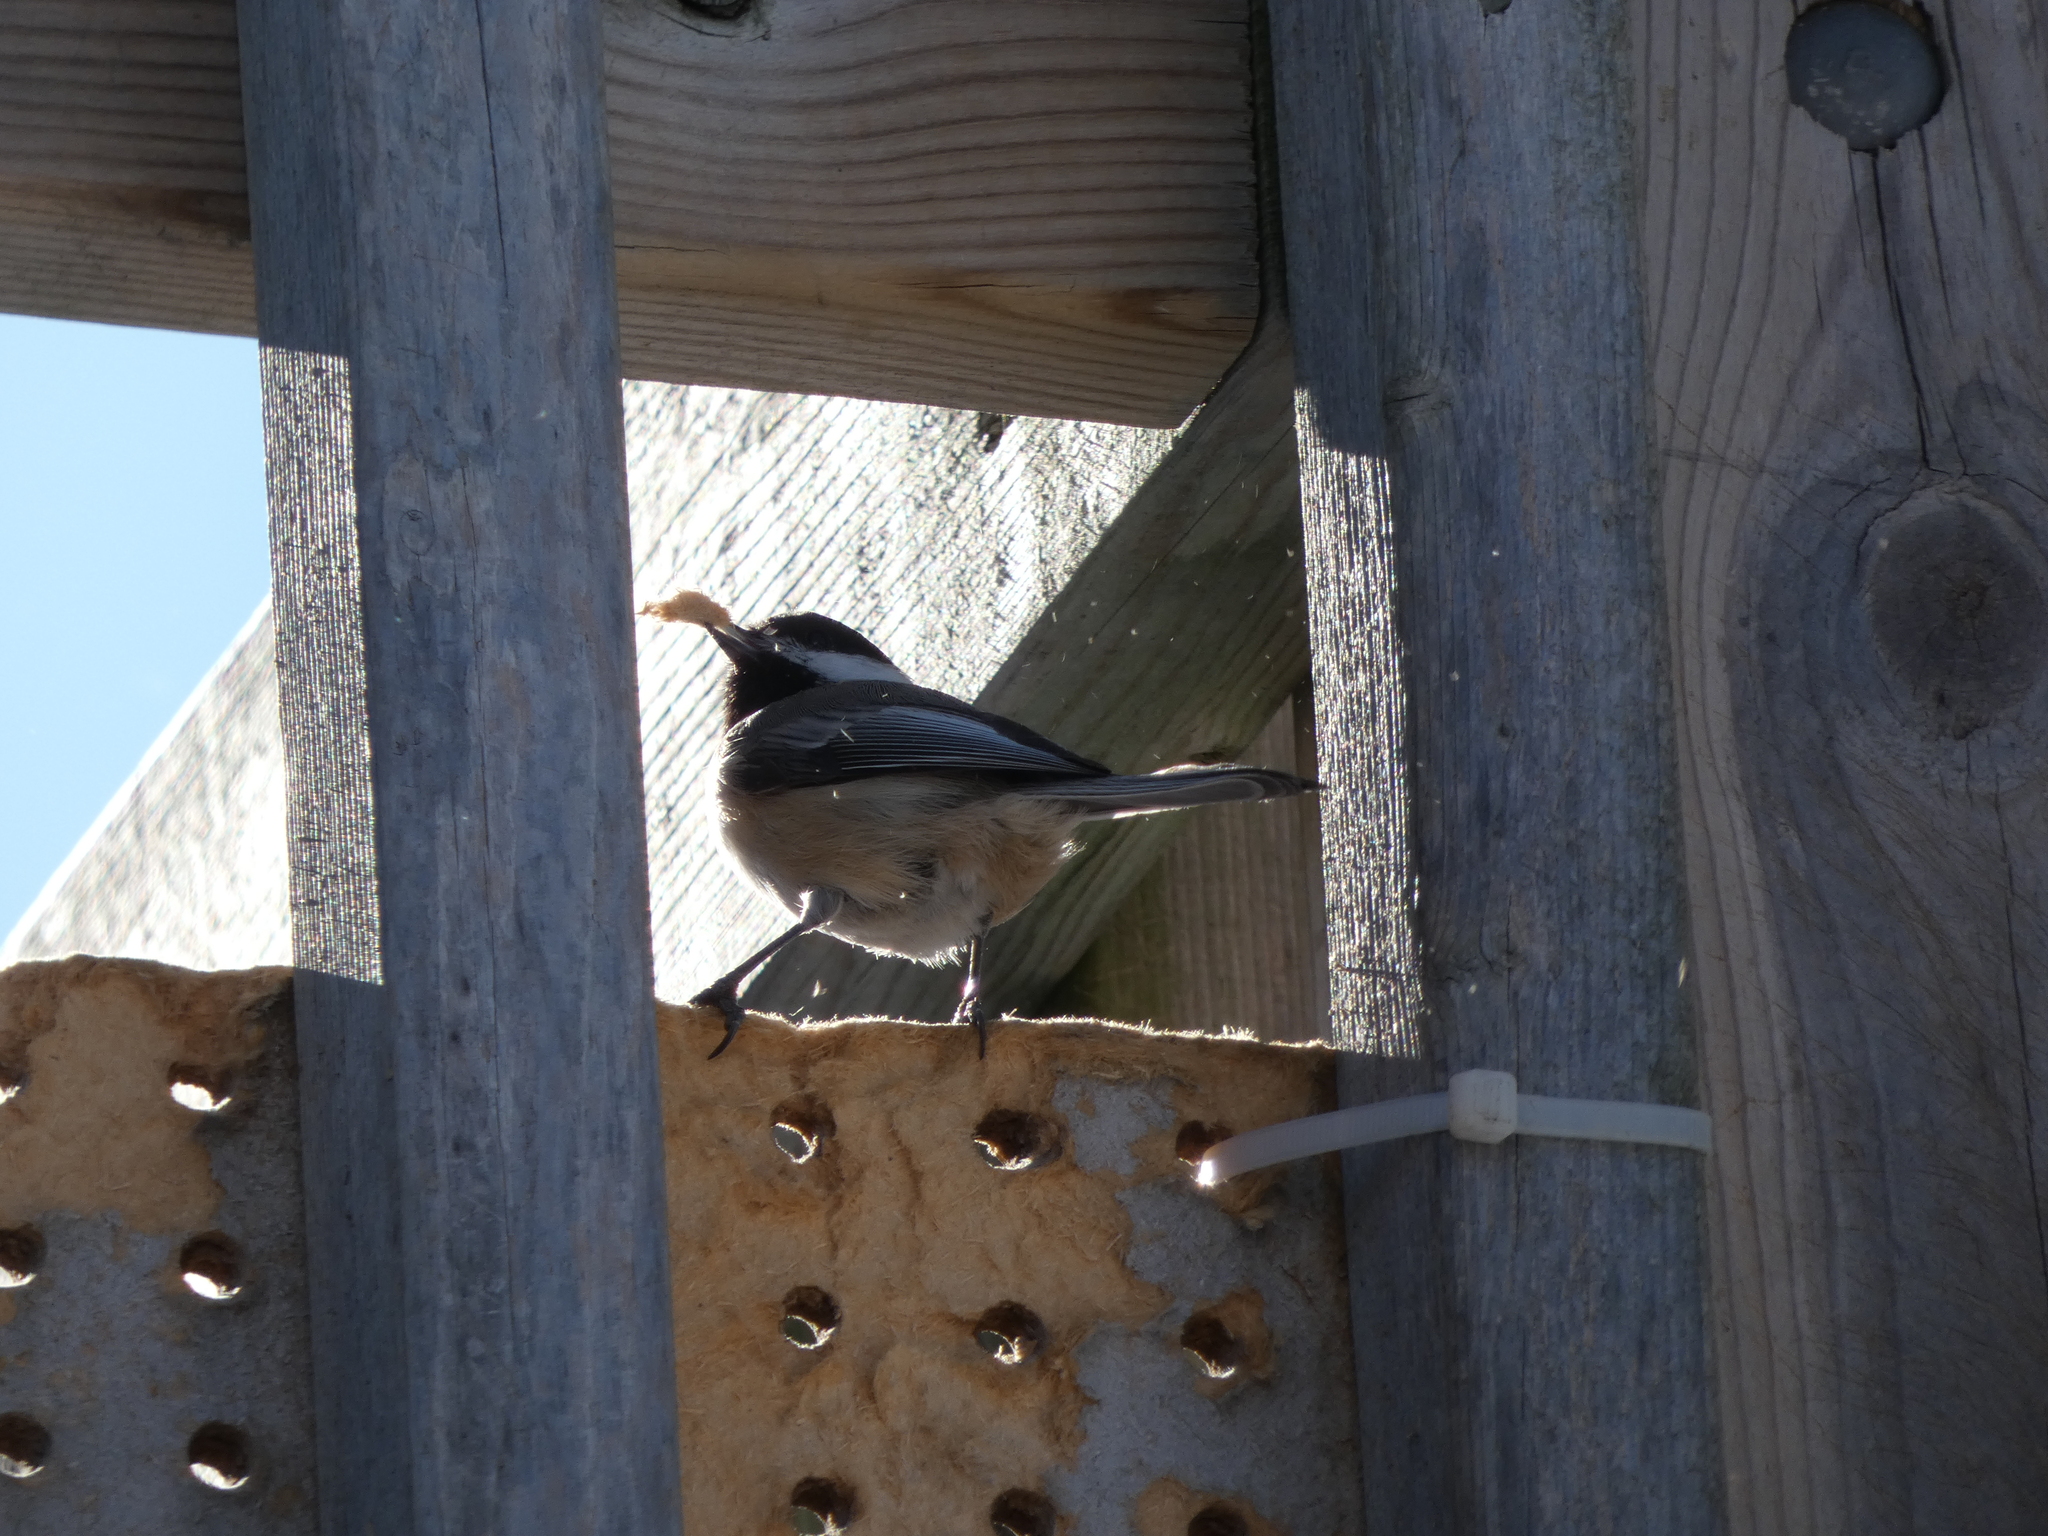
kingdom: Animalia
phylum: Chordata
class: Aves
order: Passeriformes
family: Paridae
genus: Poecile
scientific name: Poecile atricapillus
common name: Black-capped chickadee
